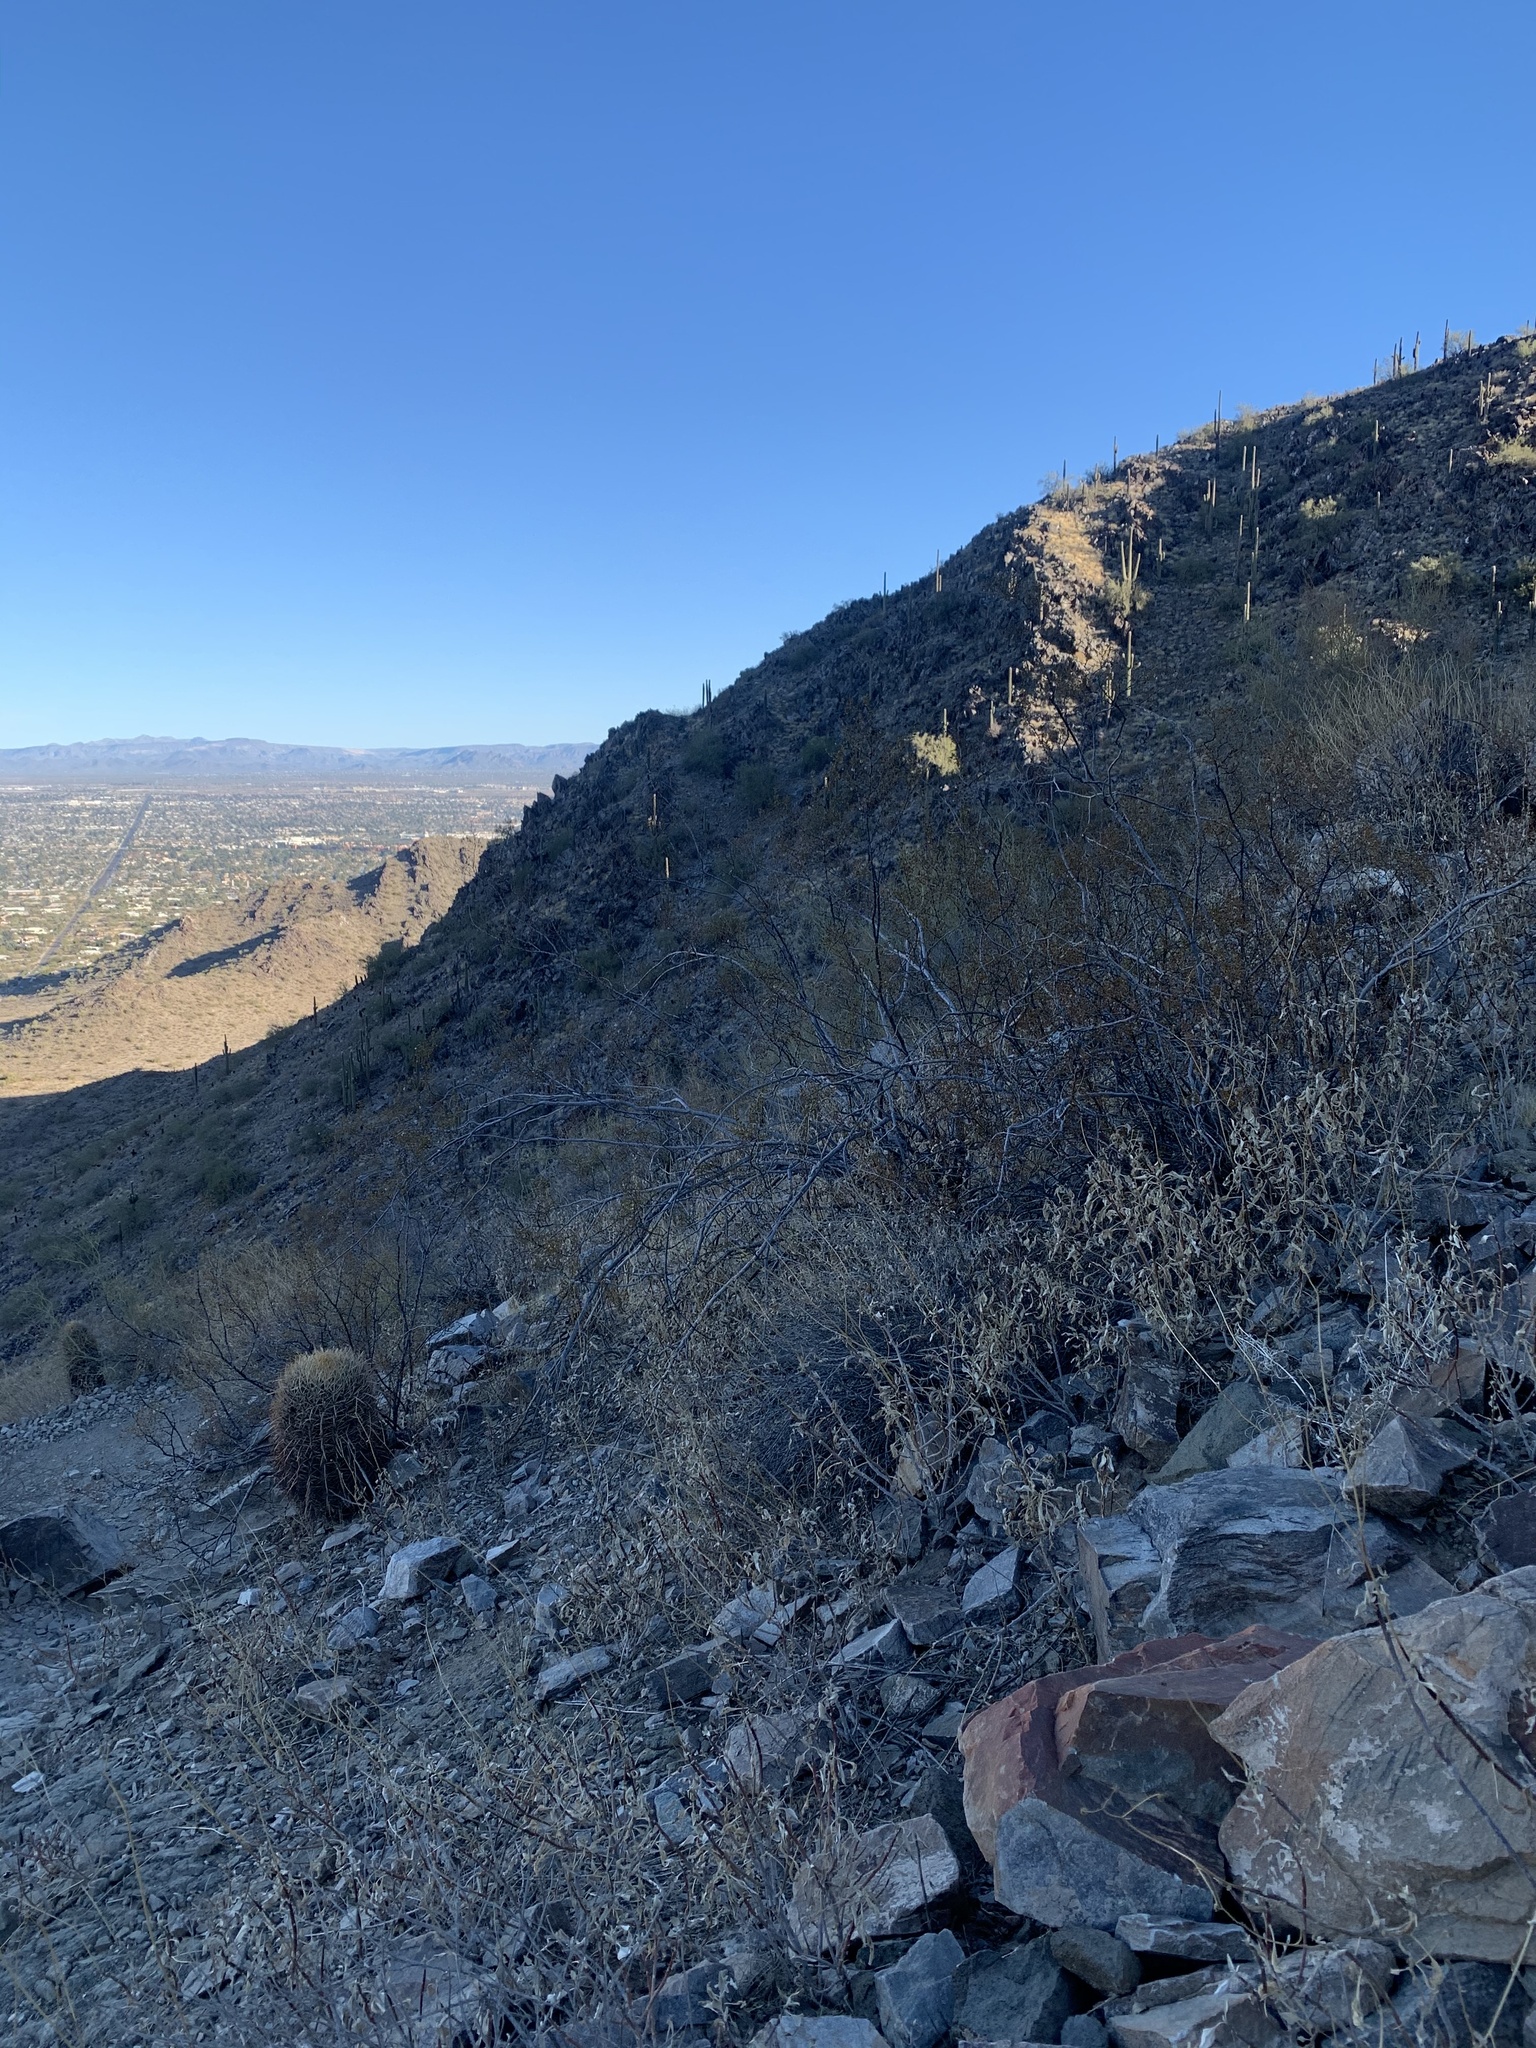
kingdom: Plantae
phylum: Tracheophyta
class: Magnoliopsida
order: Caryophyllales
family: Cactaceae
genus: Ferocactus
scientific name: Ferocactus wislizeni
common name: Candy barrel cactus
